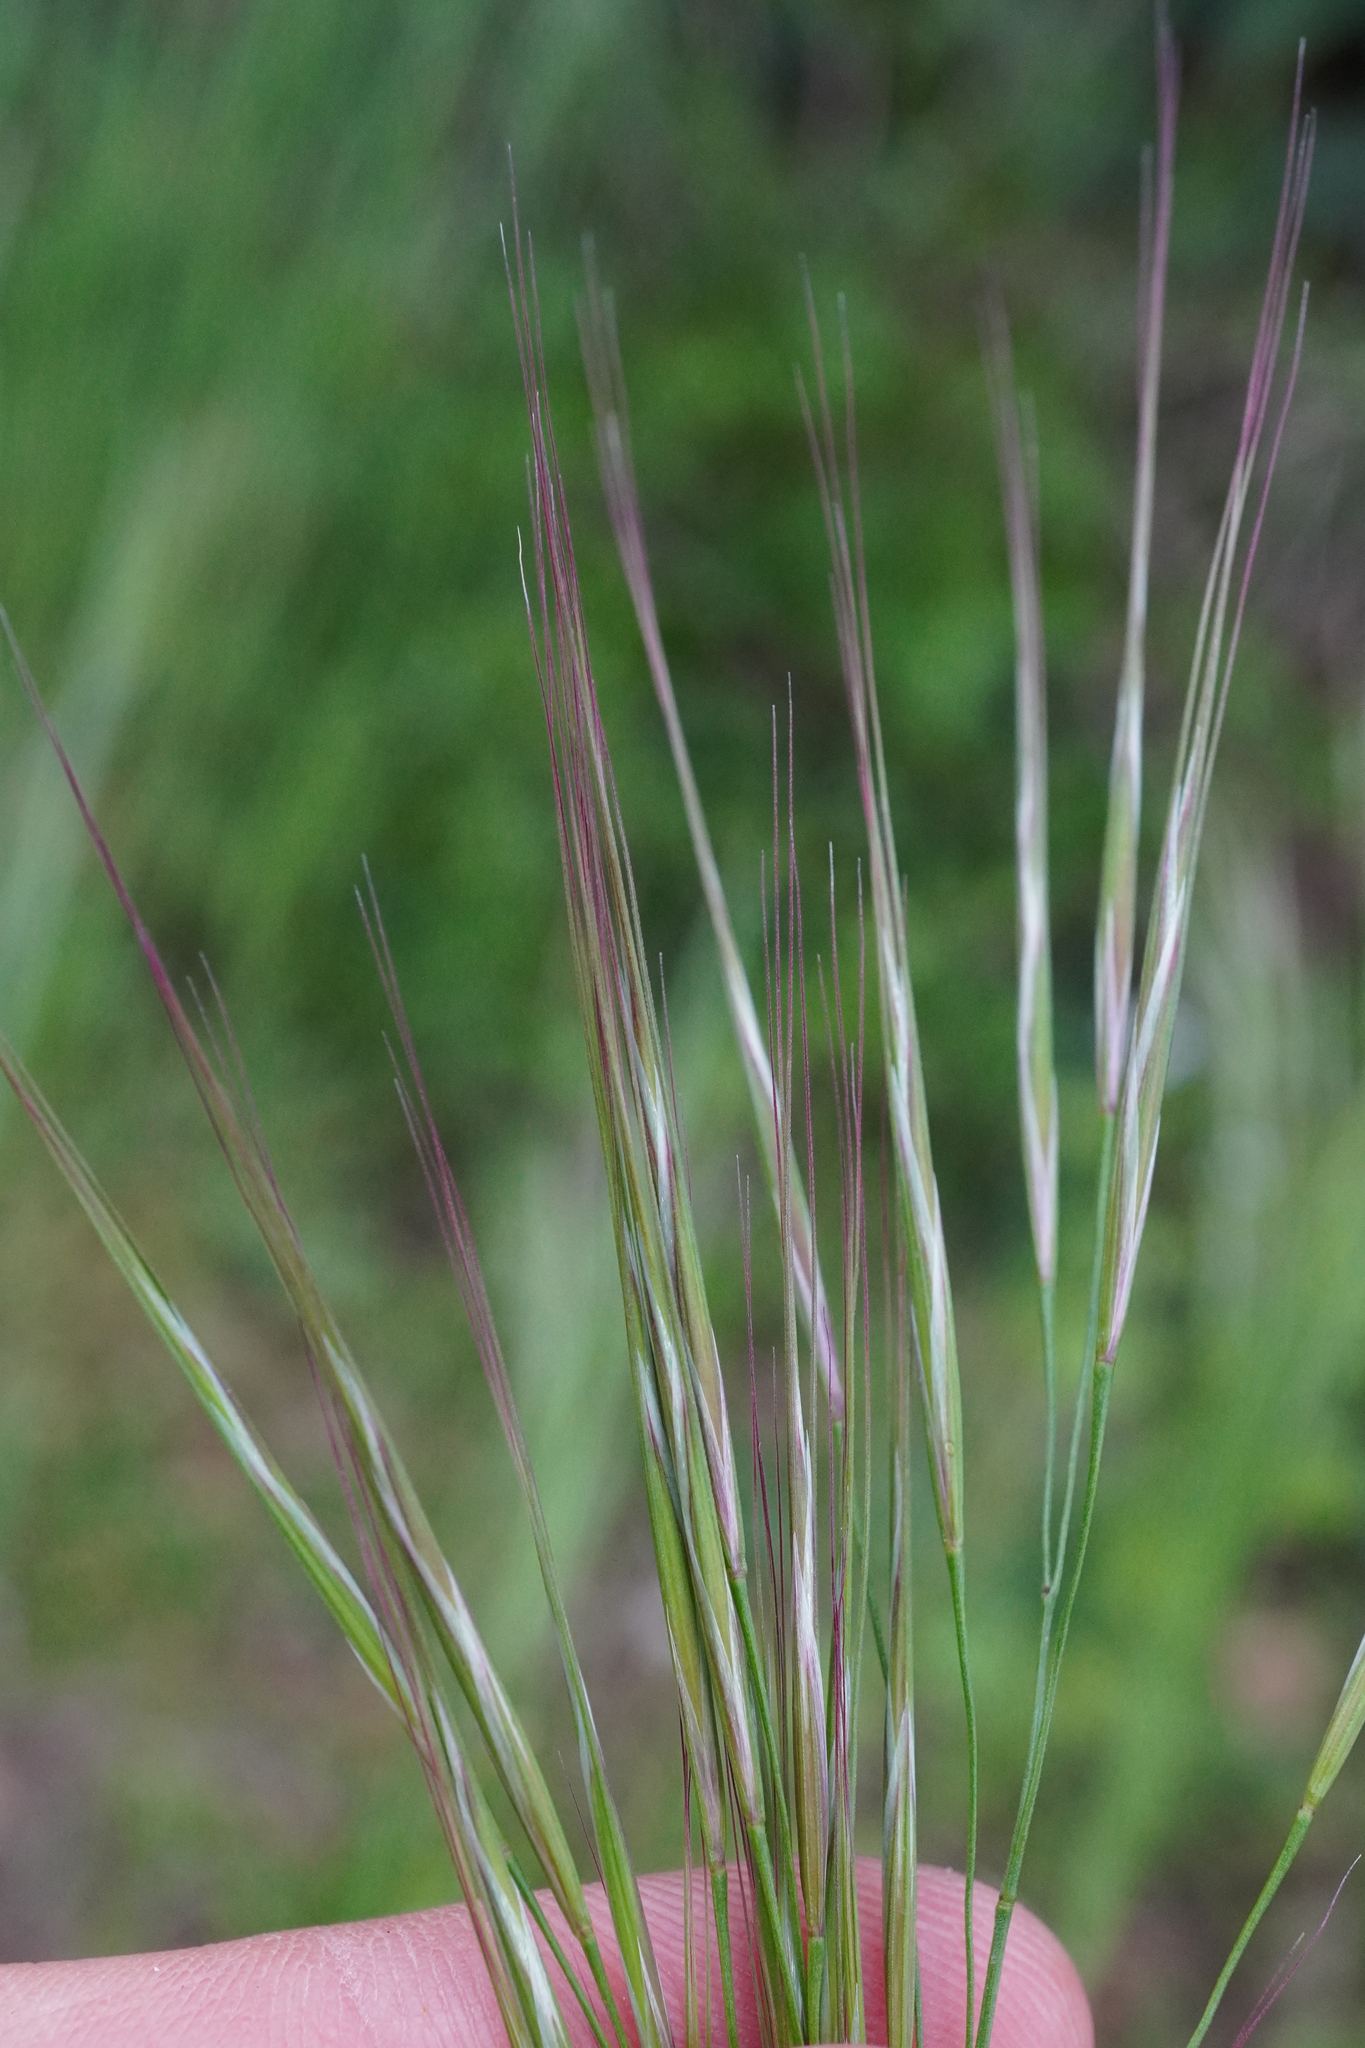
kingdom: Plantae
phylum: Tracheophyta
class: Liliopsida
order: Poales
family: Poaceae
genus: Bromus
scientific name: Bromus sterilis
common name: Poverty brome
